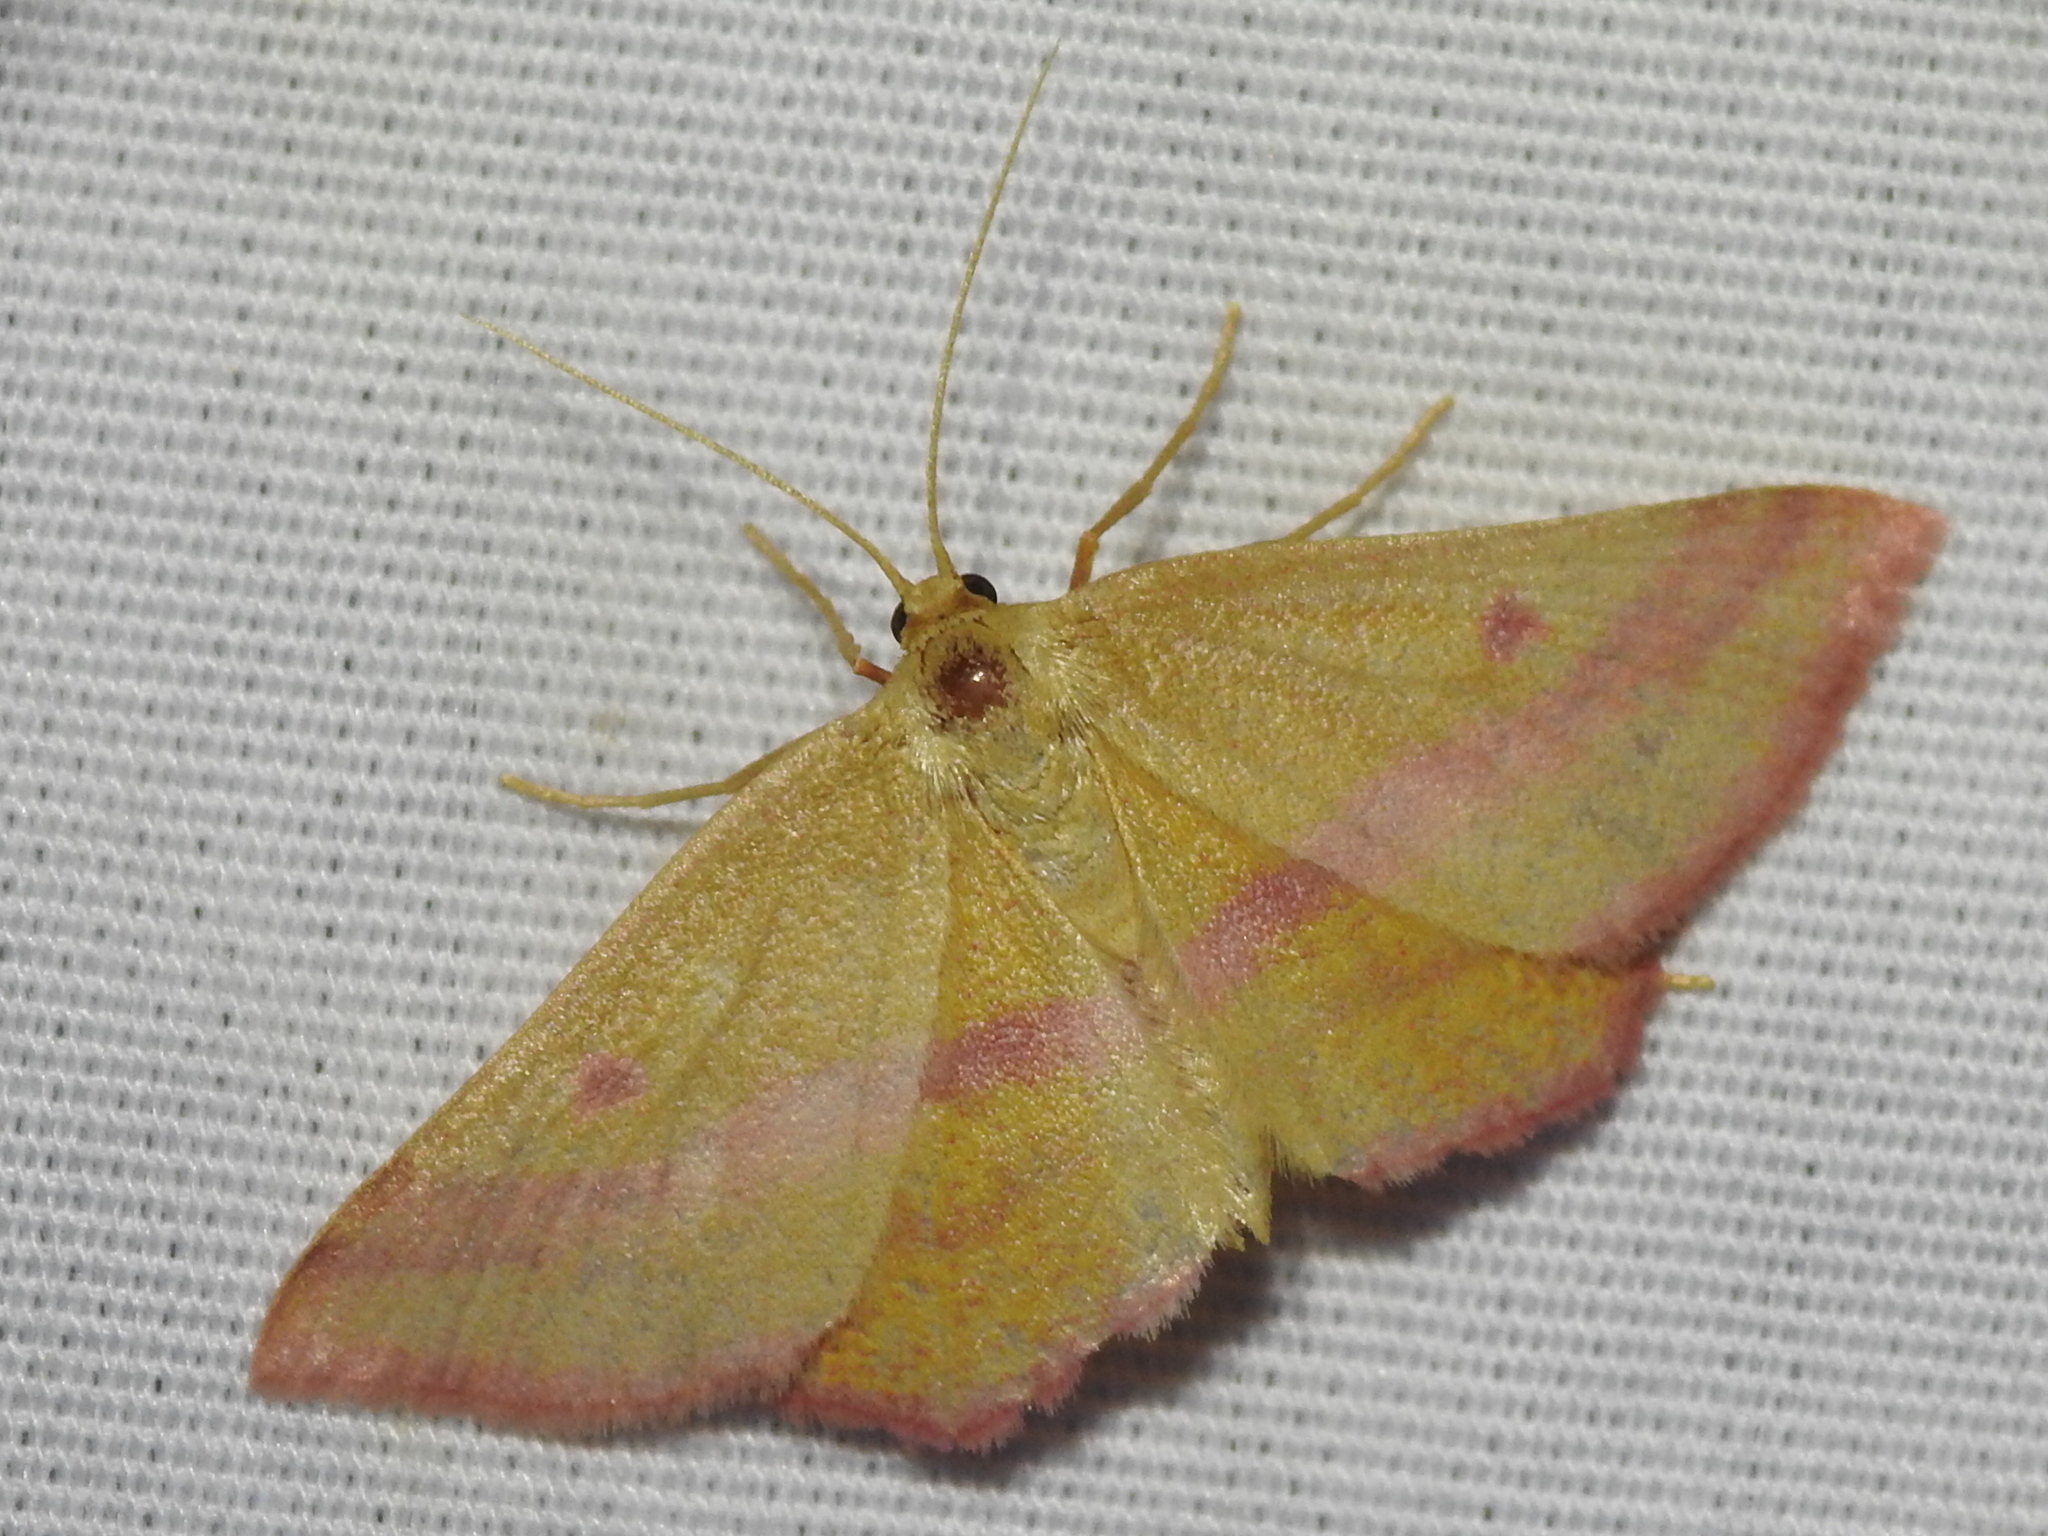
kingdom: Animalia
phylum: Arthropoda
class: Insecta
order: Lepidoptera
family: Geometridae
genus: Haematopis
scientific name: Haematopis grataria
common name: Chickweed geometer
